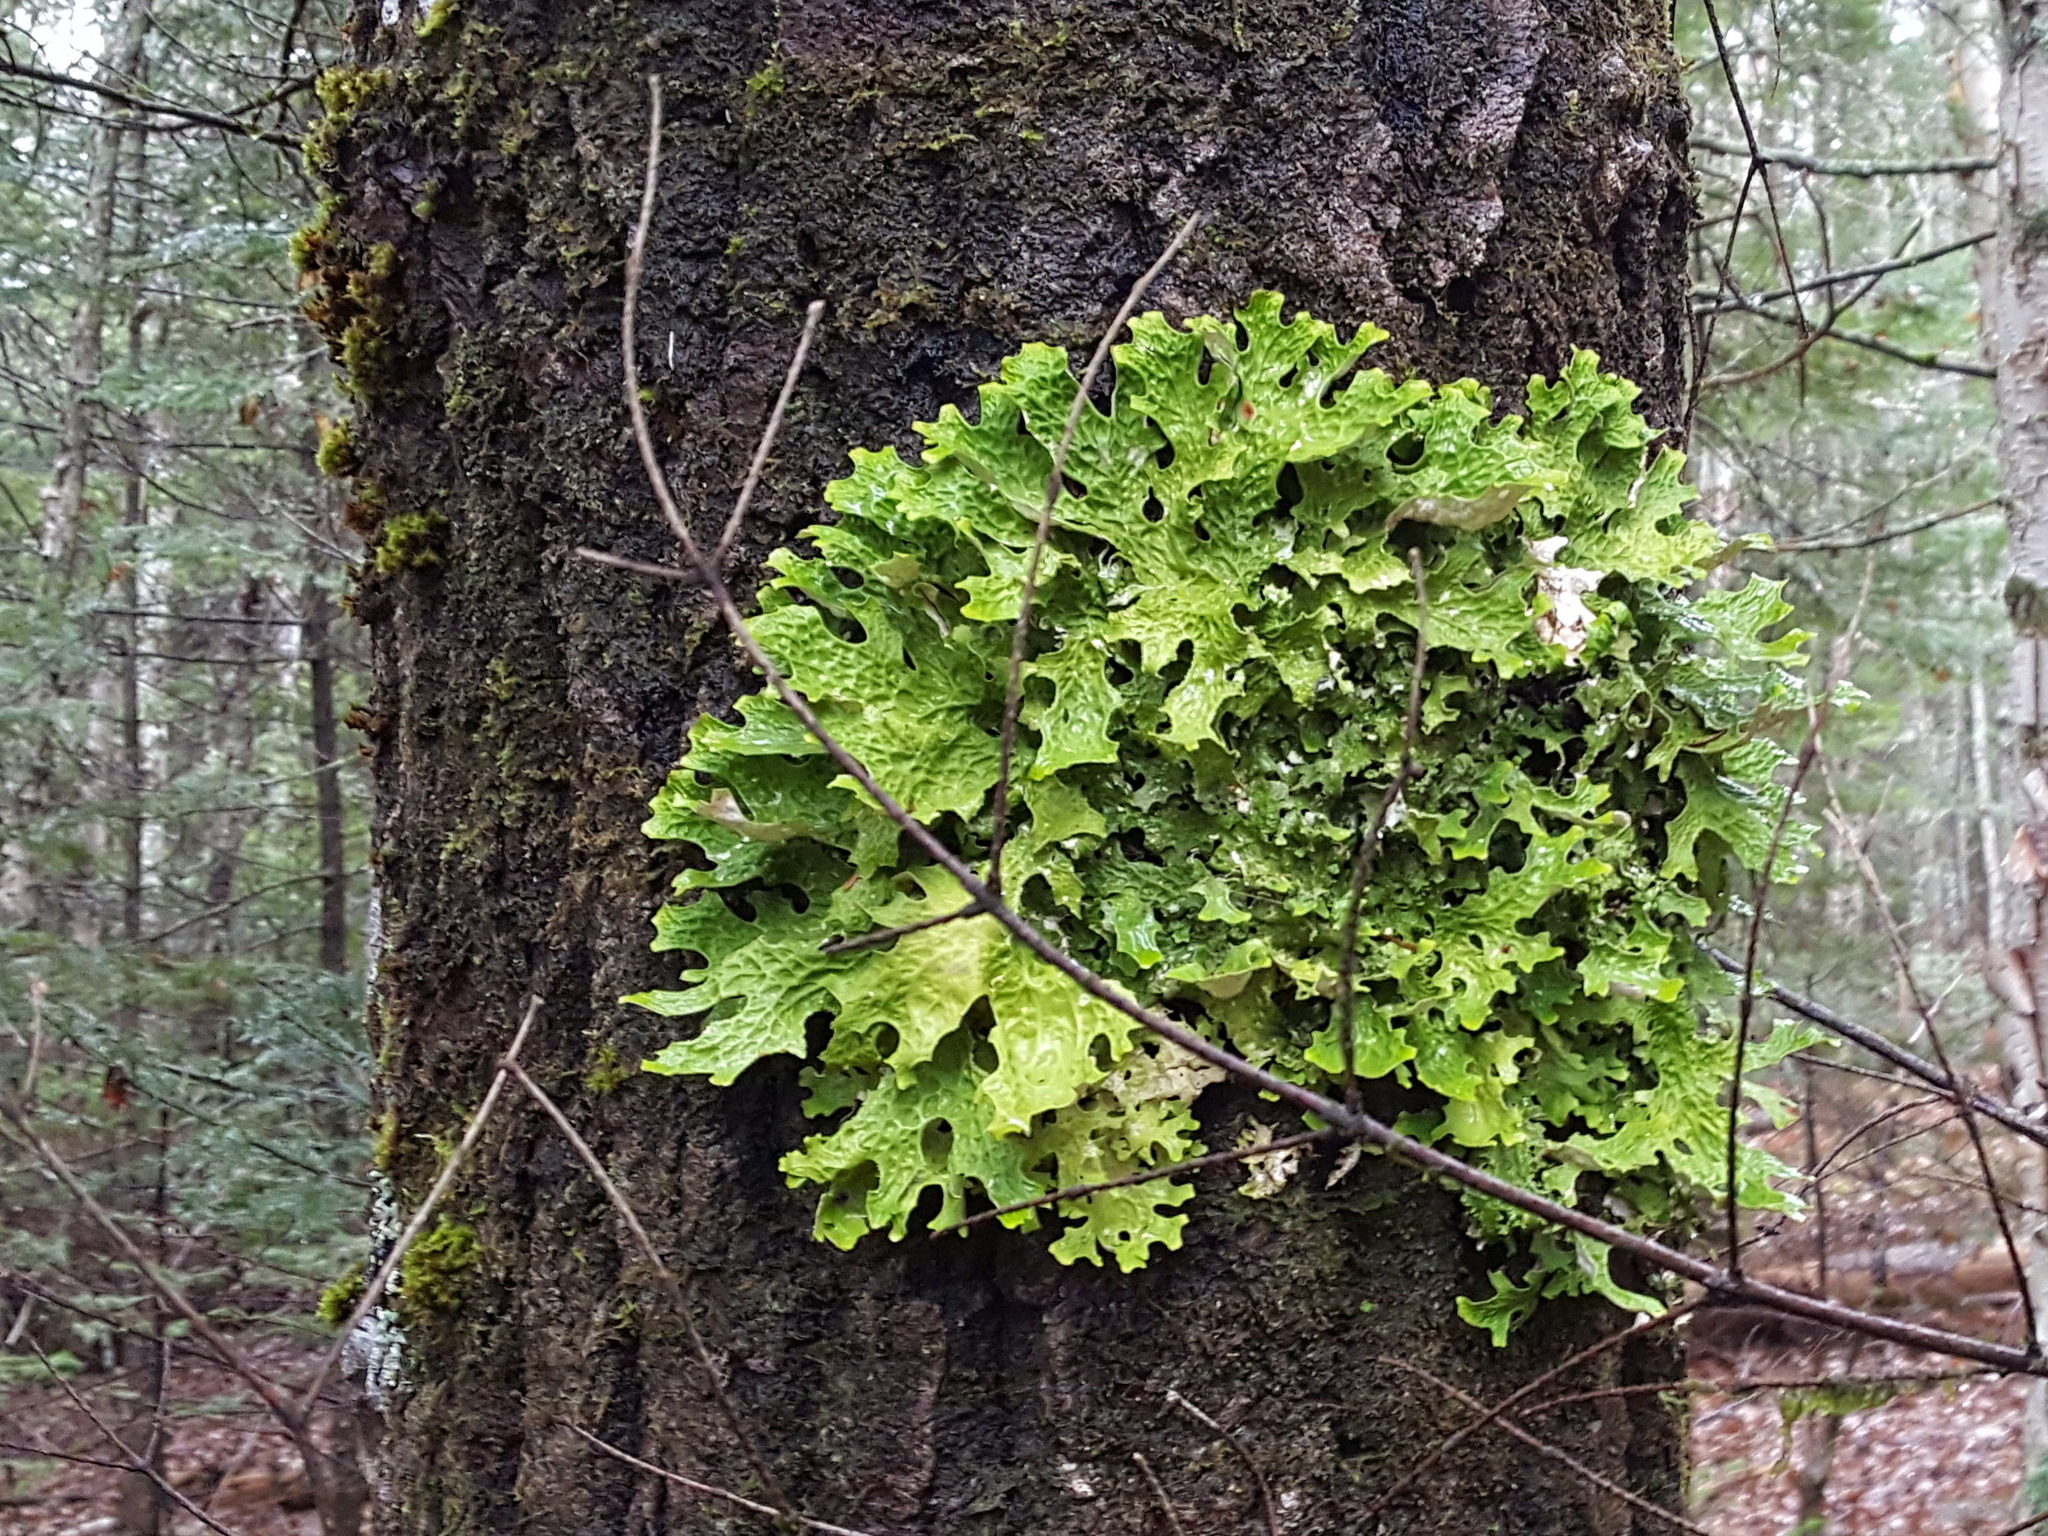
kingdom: Fungi
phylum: Ascomycota
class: Lecanoromycetes
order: Peltigerales
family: Lobariaceae
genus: Lobaria
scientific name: Lobaria pulmonaria
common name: Lungwort
